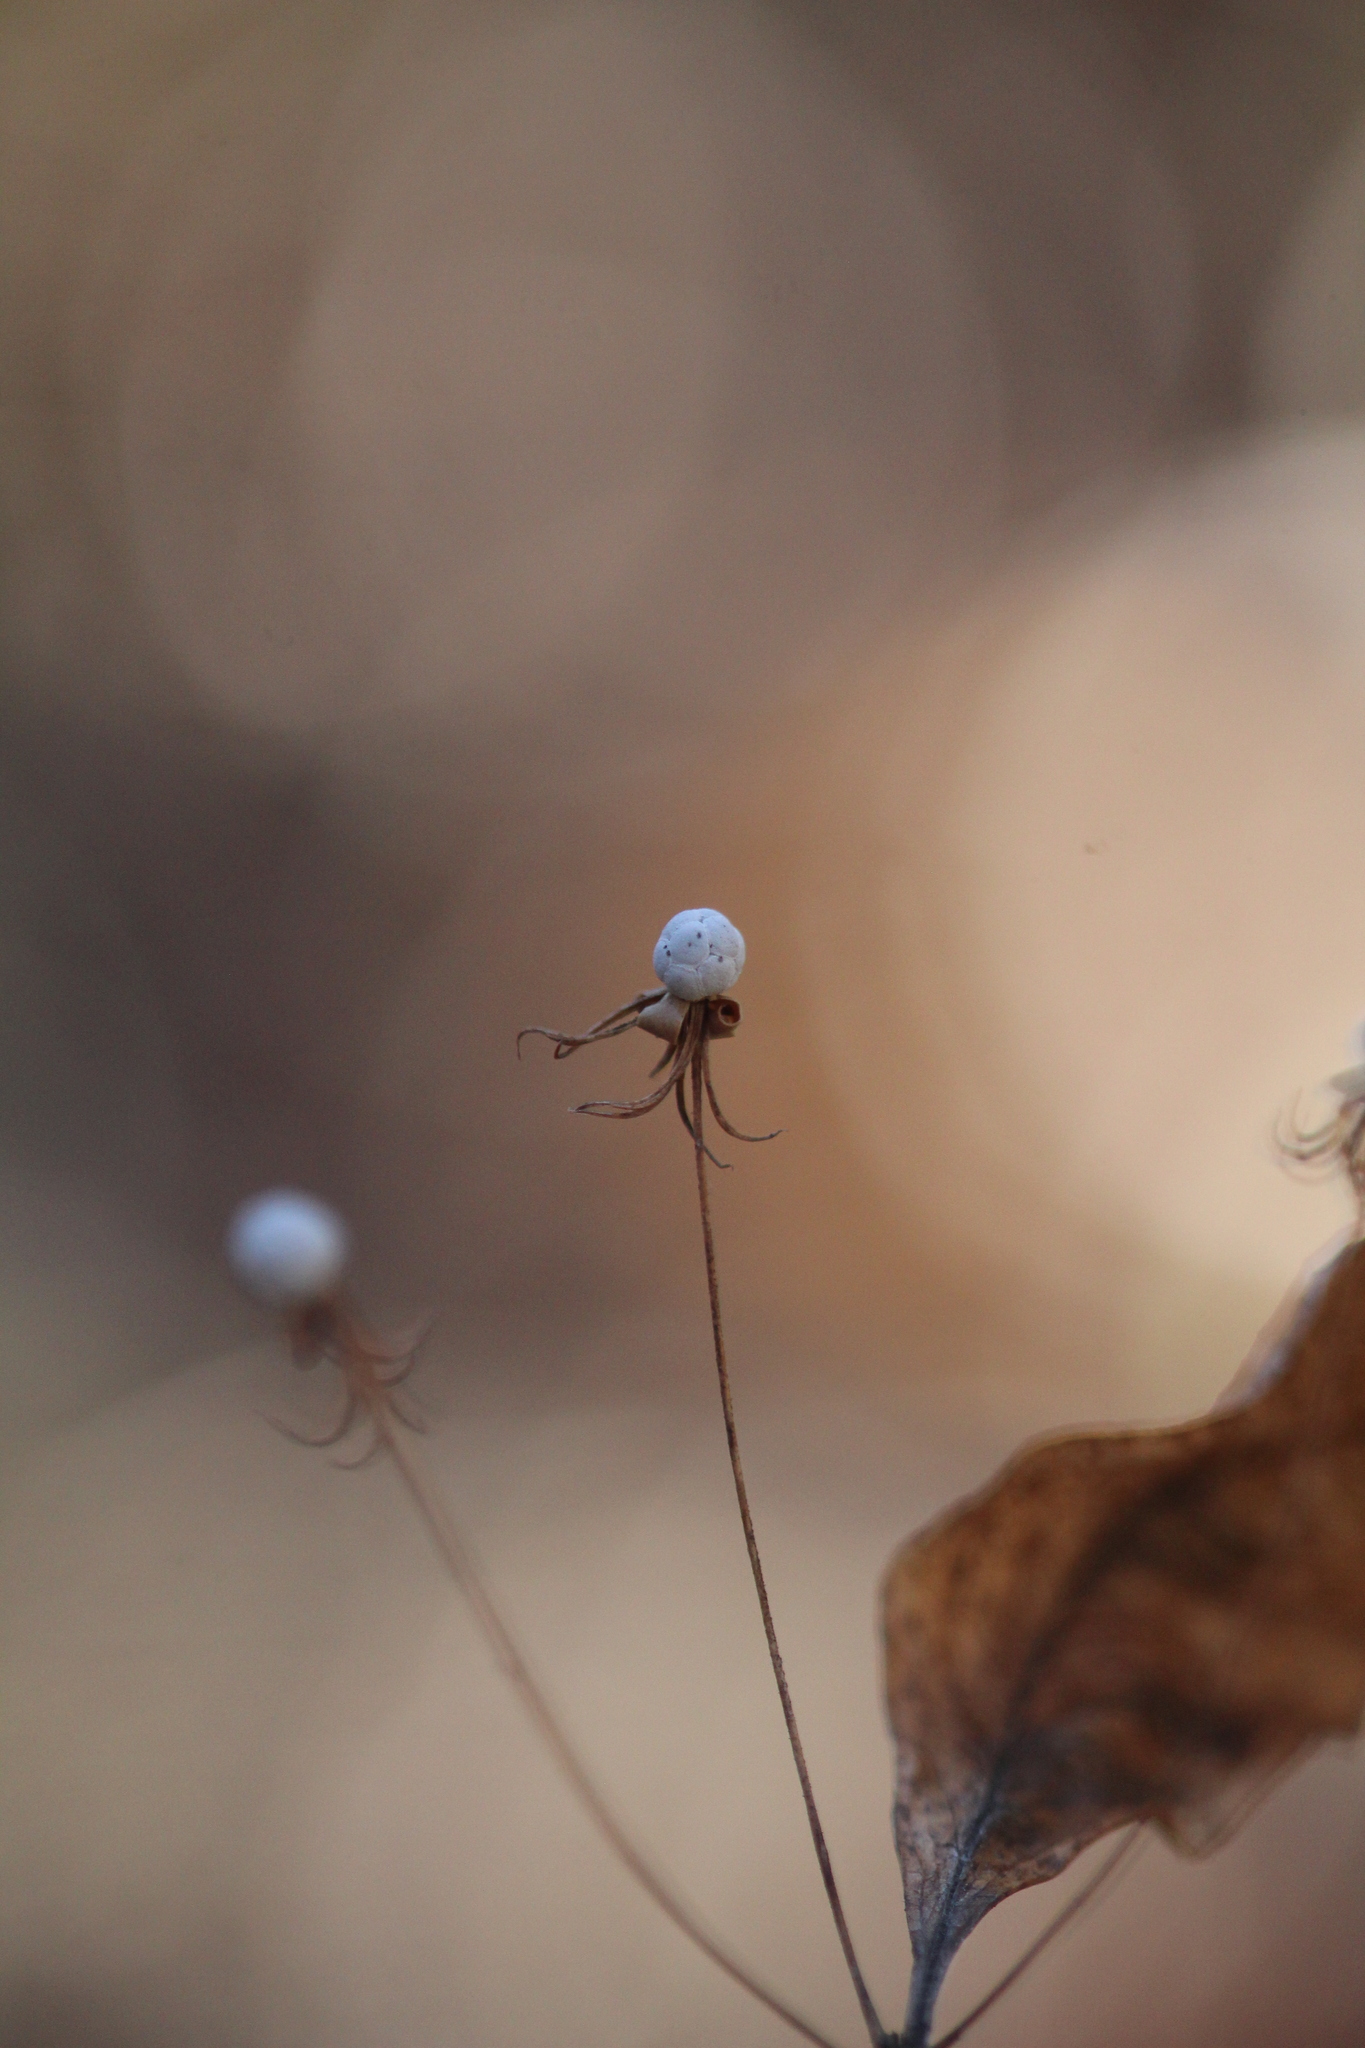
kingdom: Plantae
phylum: Tracheophyta
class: Magnoliopsida
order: Ericales
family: Primulaceae
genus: Lysimachia
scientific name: Lysimachia borealis
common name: American starflower
